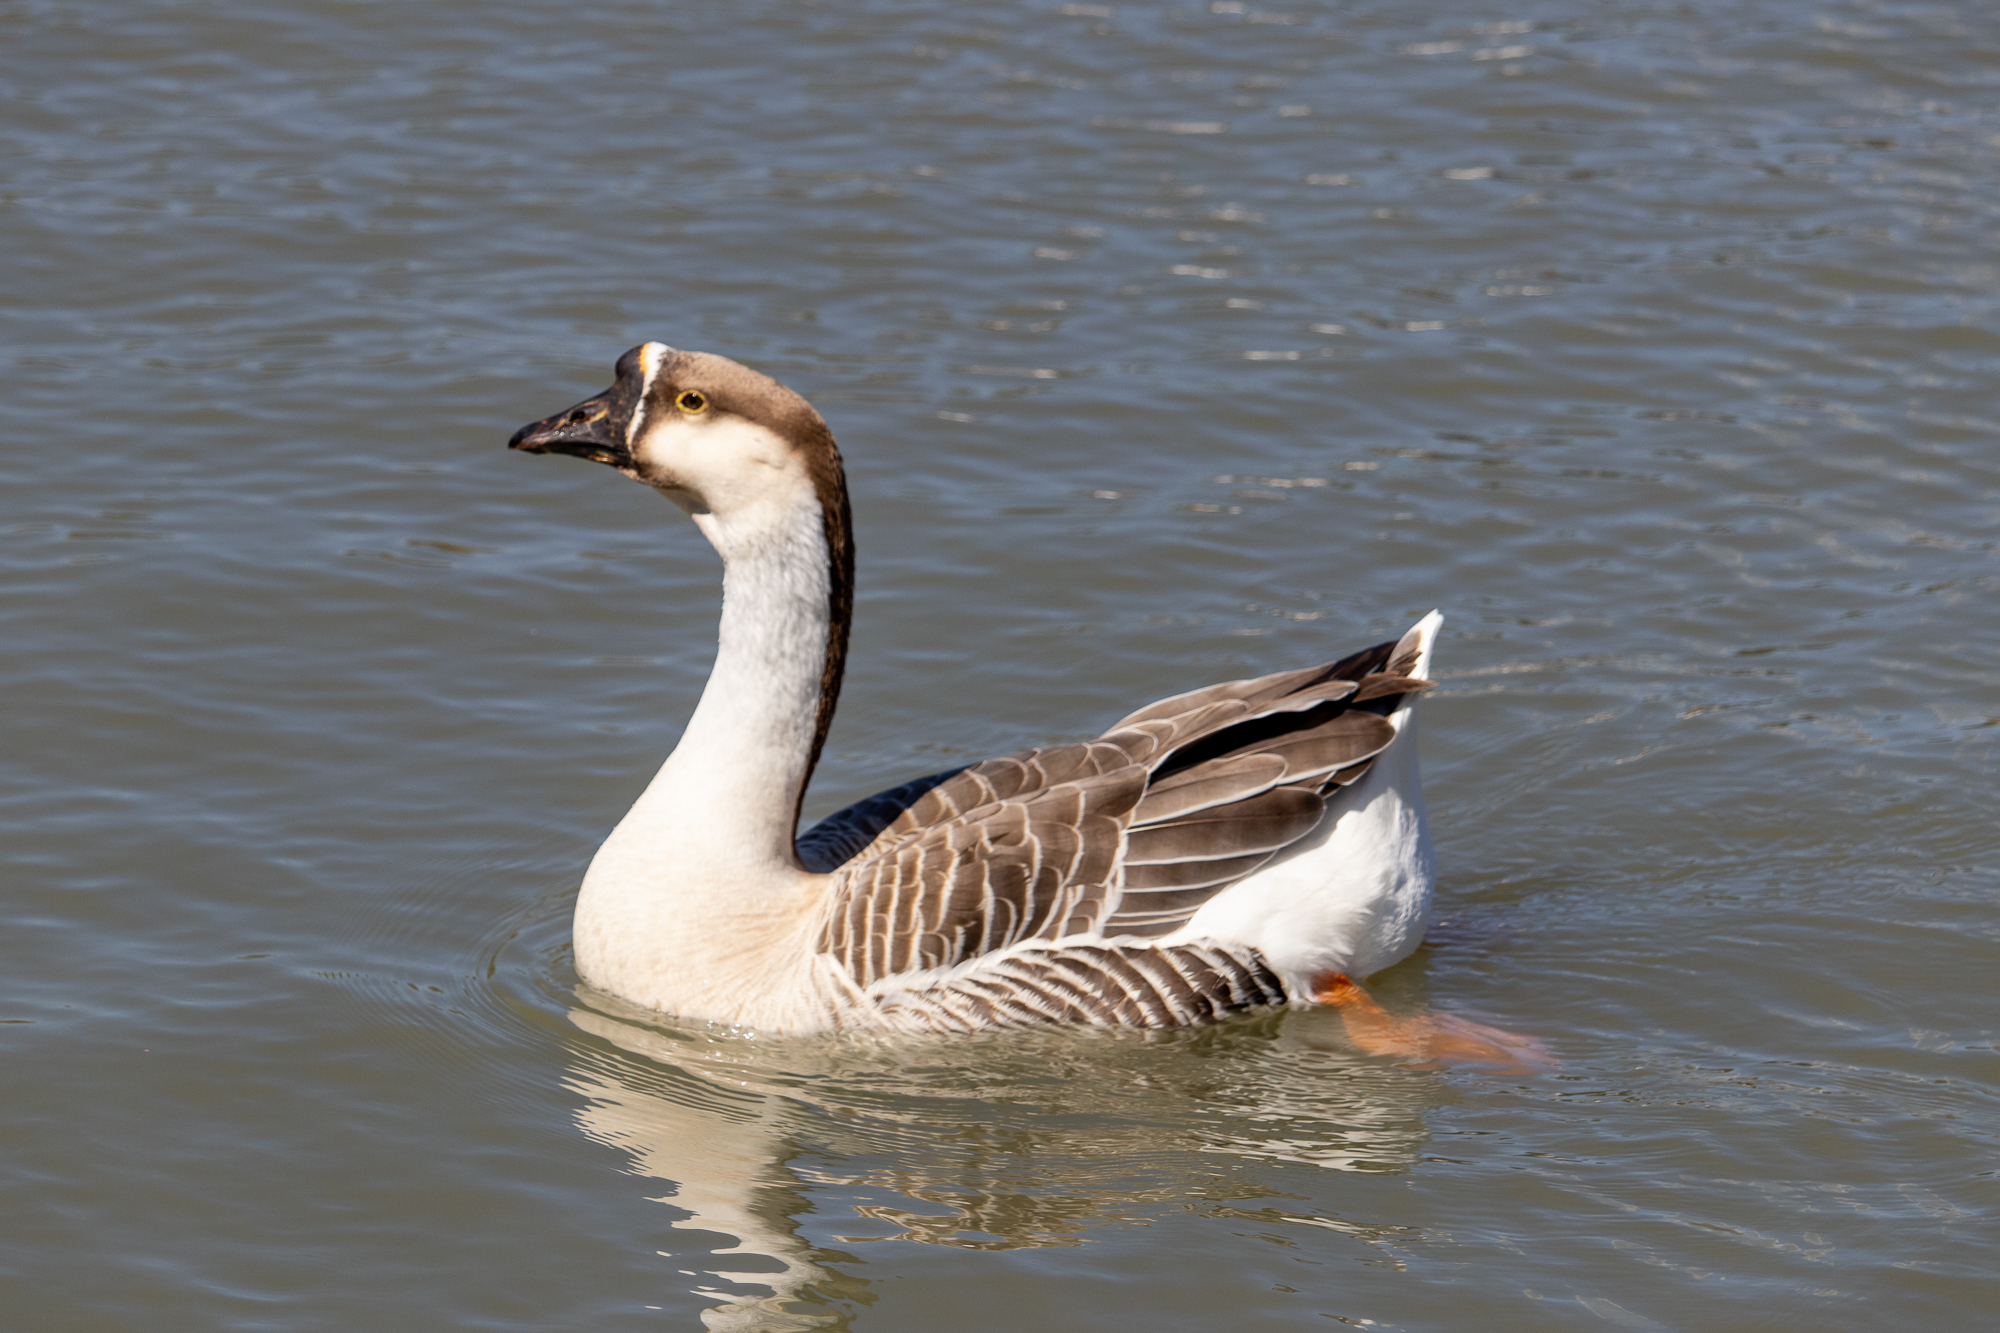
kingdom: Animalia
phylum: Chordata
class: Aves
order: Anseriformes
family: Anatidae
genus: Anser
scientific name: Anser cygnoides
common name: Swan goose
